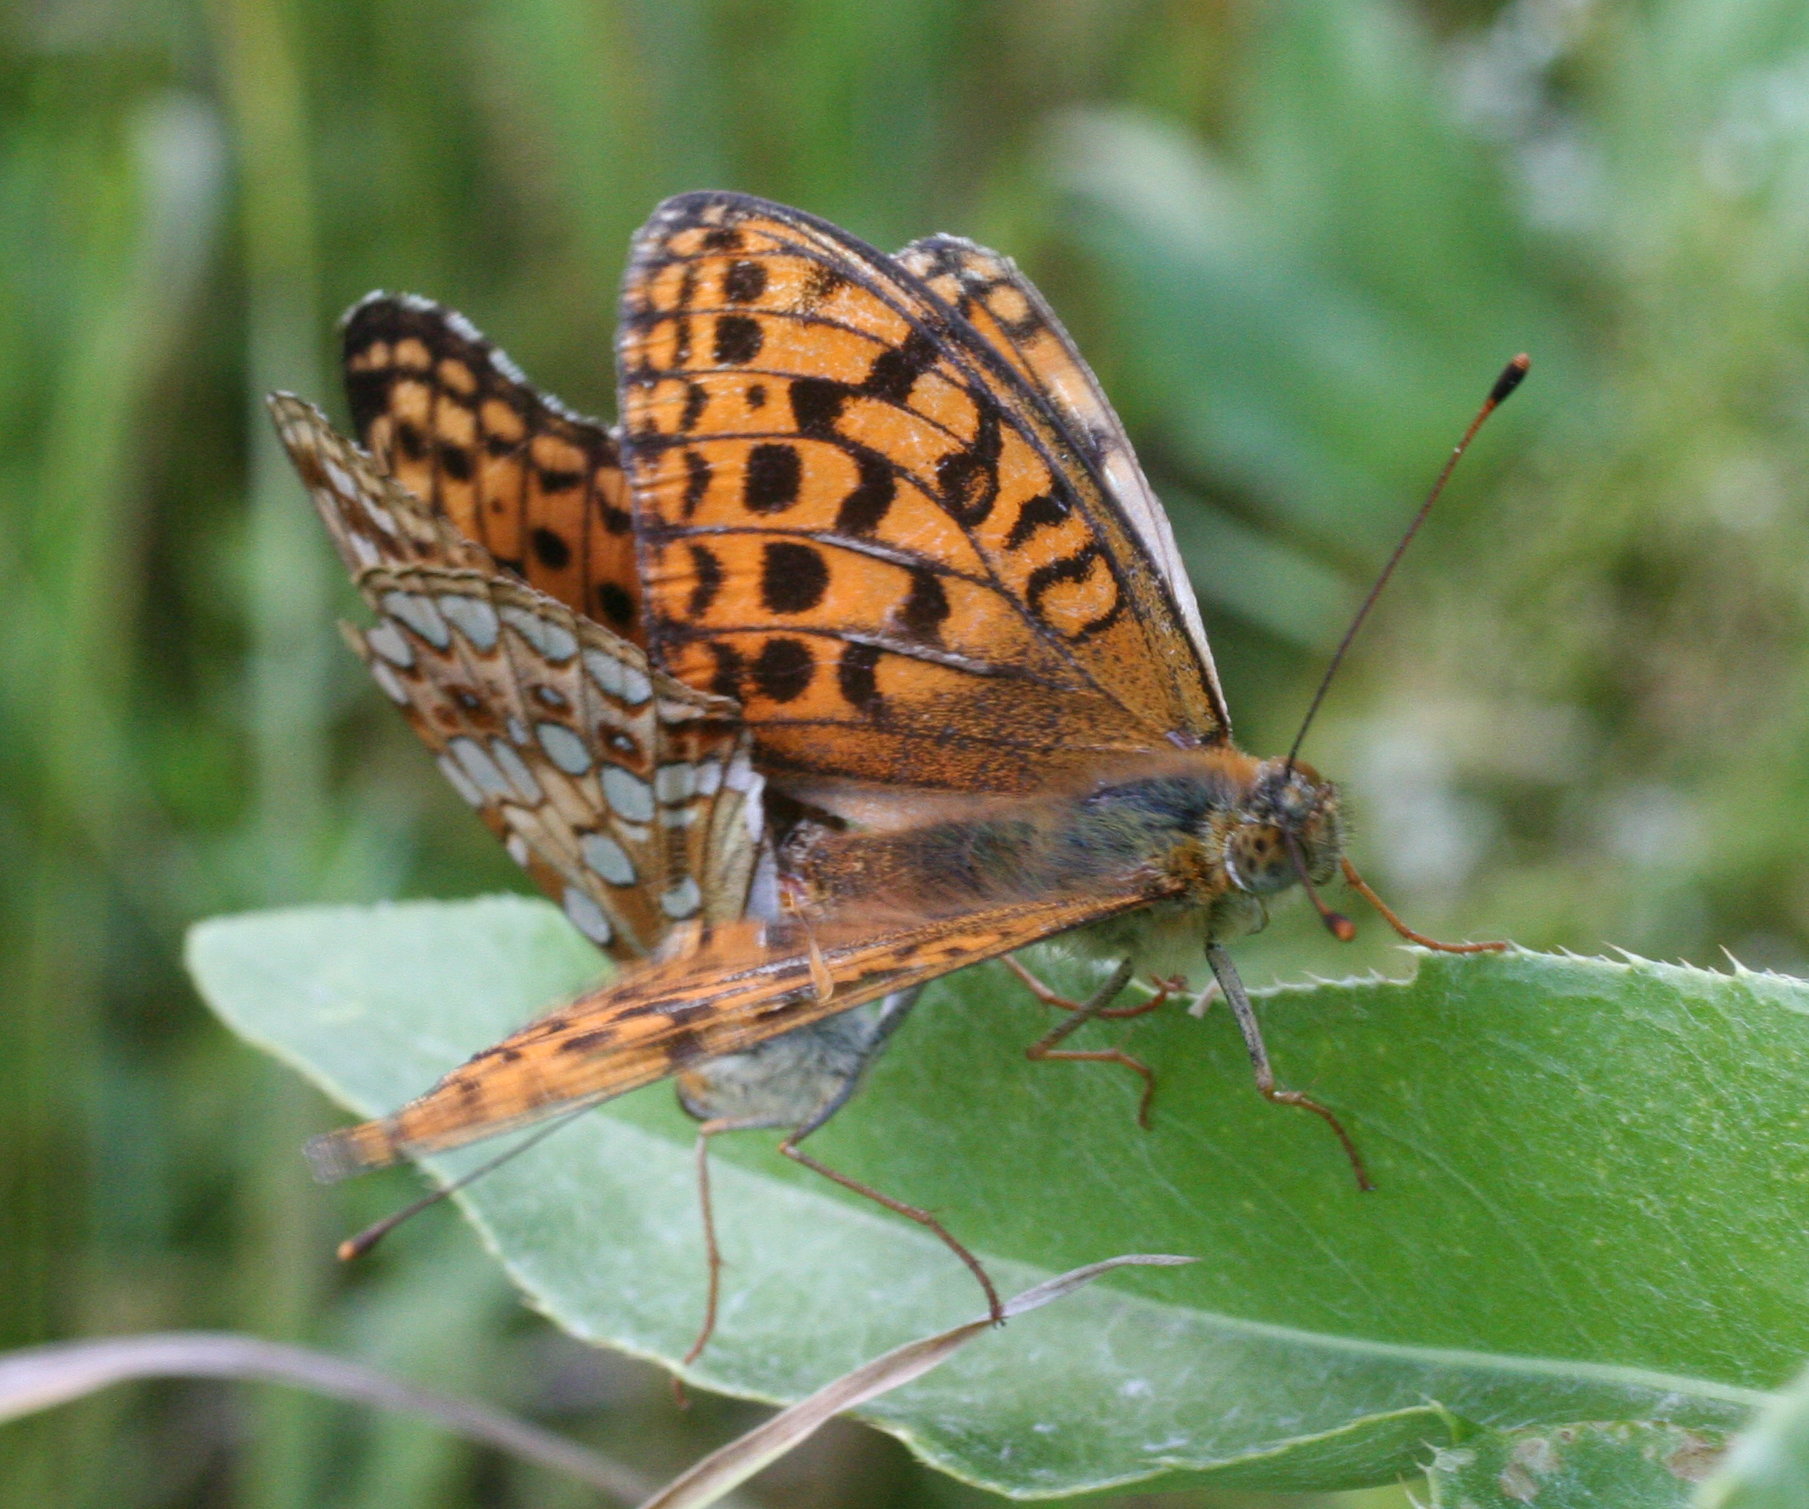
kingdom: Animalia
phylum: Arthropoda
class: Insecta
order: Lepidoptera
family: Nymphalidae
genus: Fabriciana
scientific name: Fabriciana adippe
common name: High brown fritillary
